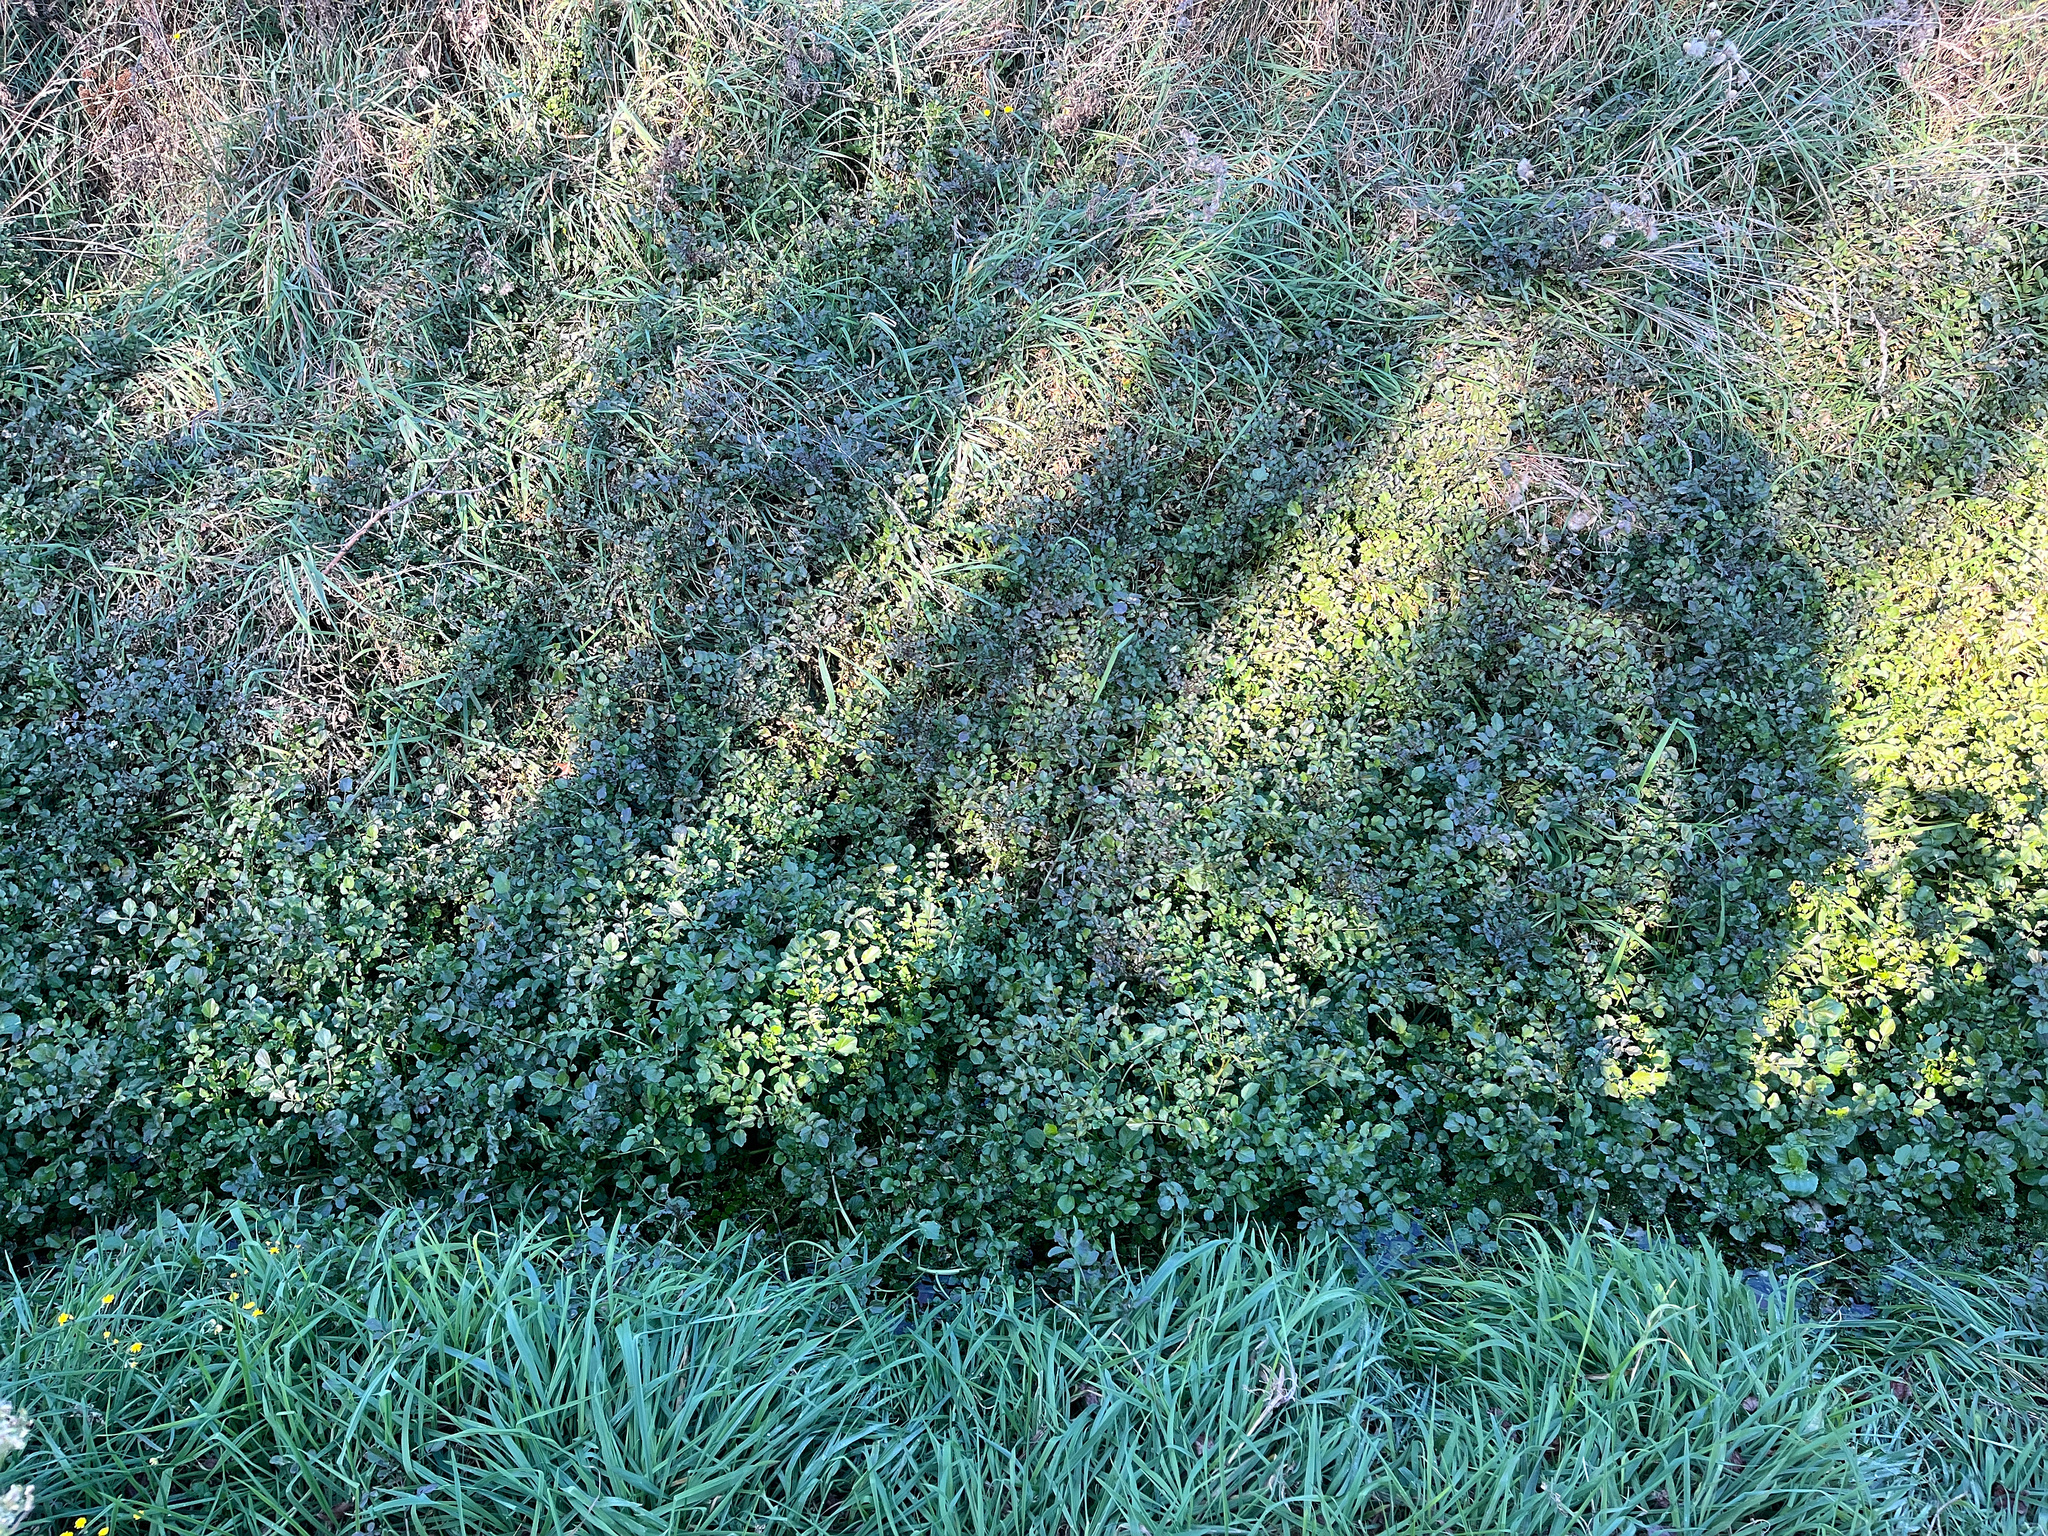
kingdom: Plantae
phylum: Tracheophyta
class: Magnoliopsida
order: Brassicales
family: Brassicaceae
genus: Nasturtium
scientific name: Nasturtium officinale
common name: Watercress
